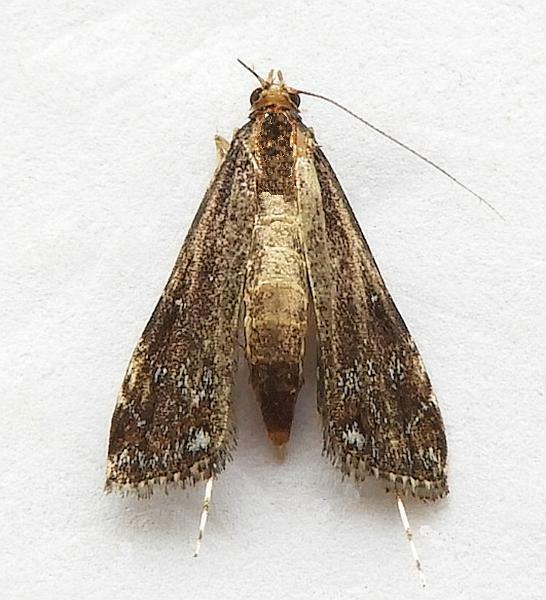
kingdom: Animalia
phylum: Arthropoda
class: Insecta
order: Lepidoptera
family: Crambidae
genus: Langessa
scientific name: Langessa nomophilalis
